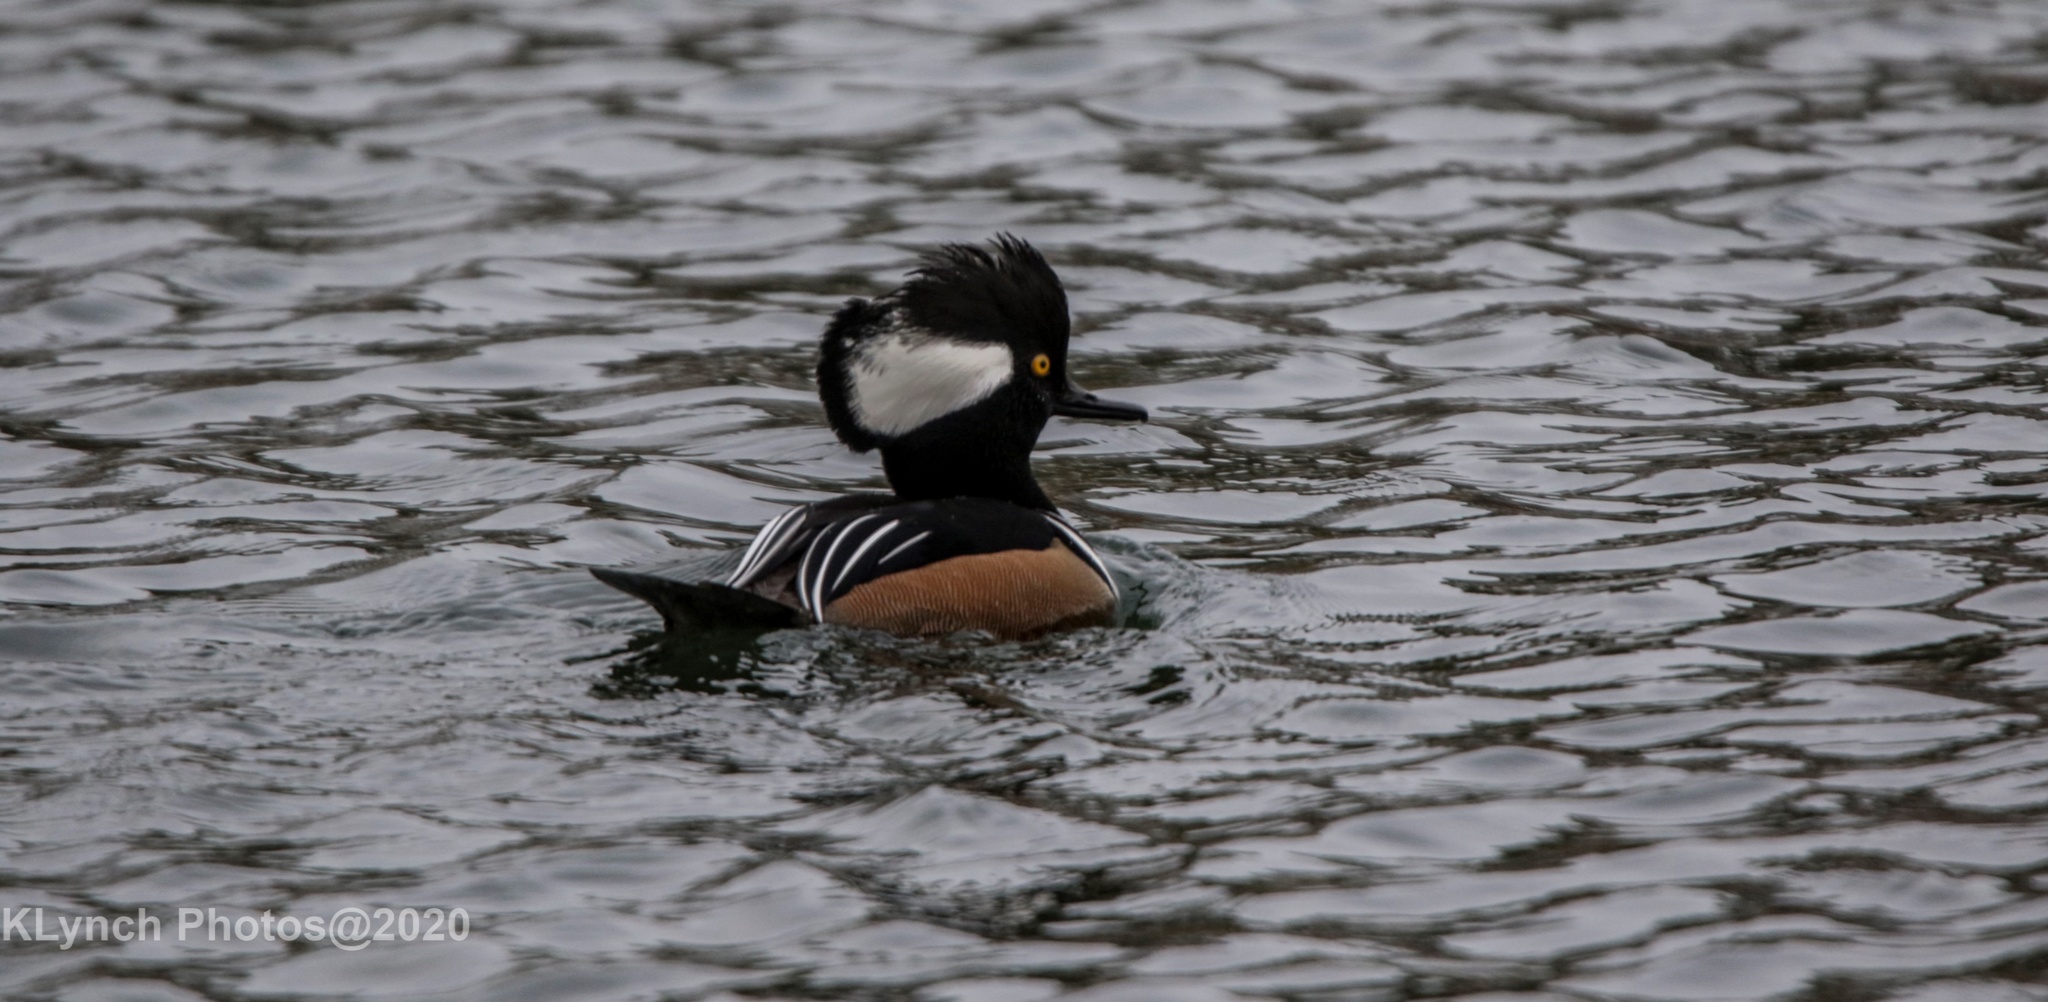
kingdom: Animalia
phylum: Chordata
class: Aves
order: Anseriformes
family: Anatidae
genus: Lophodytes
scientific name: Lophodytes cucullatus
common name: Hooded merganser
